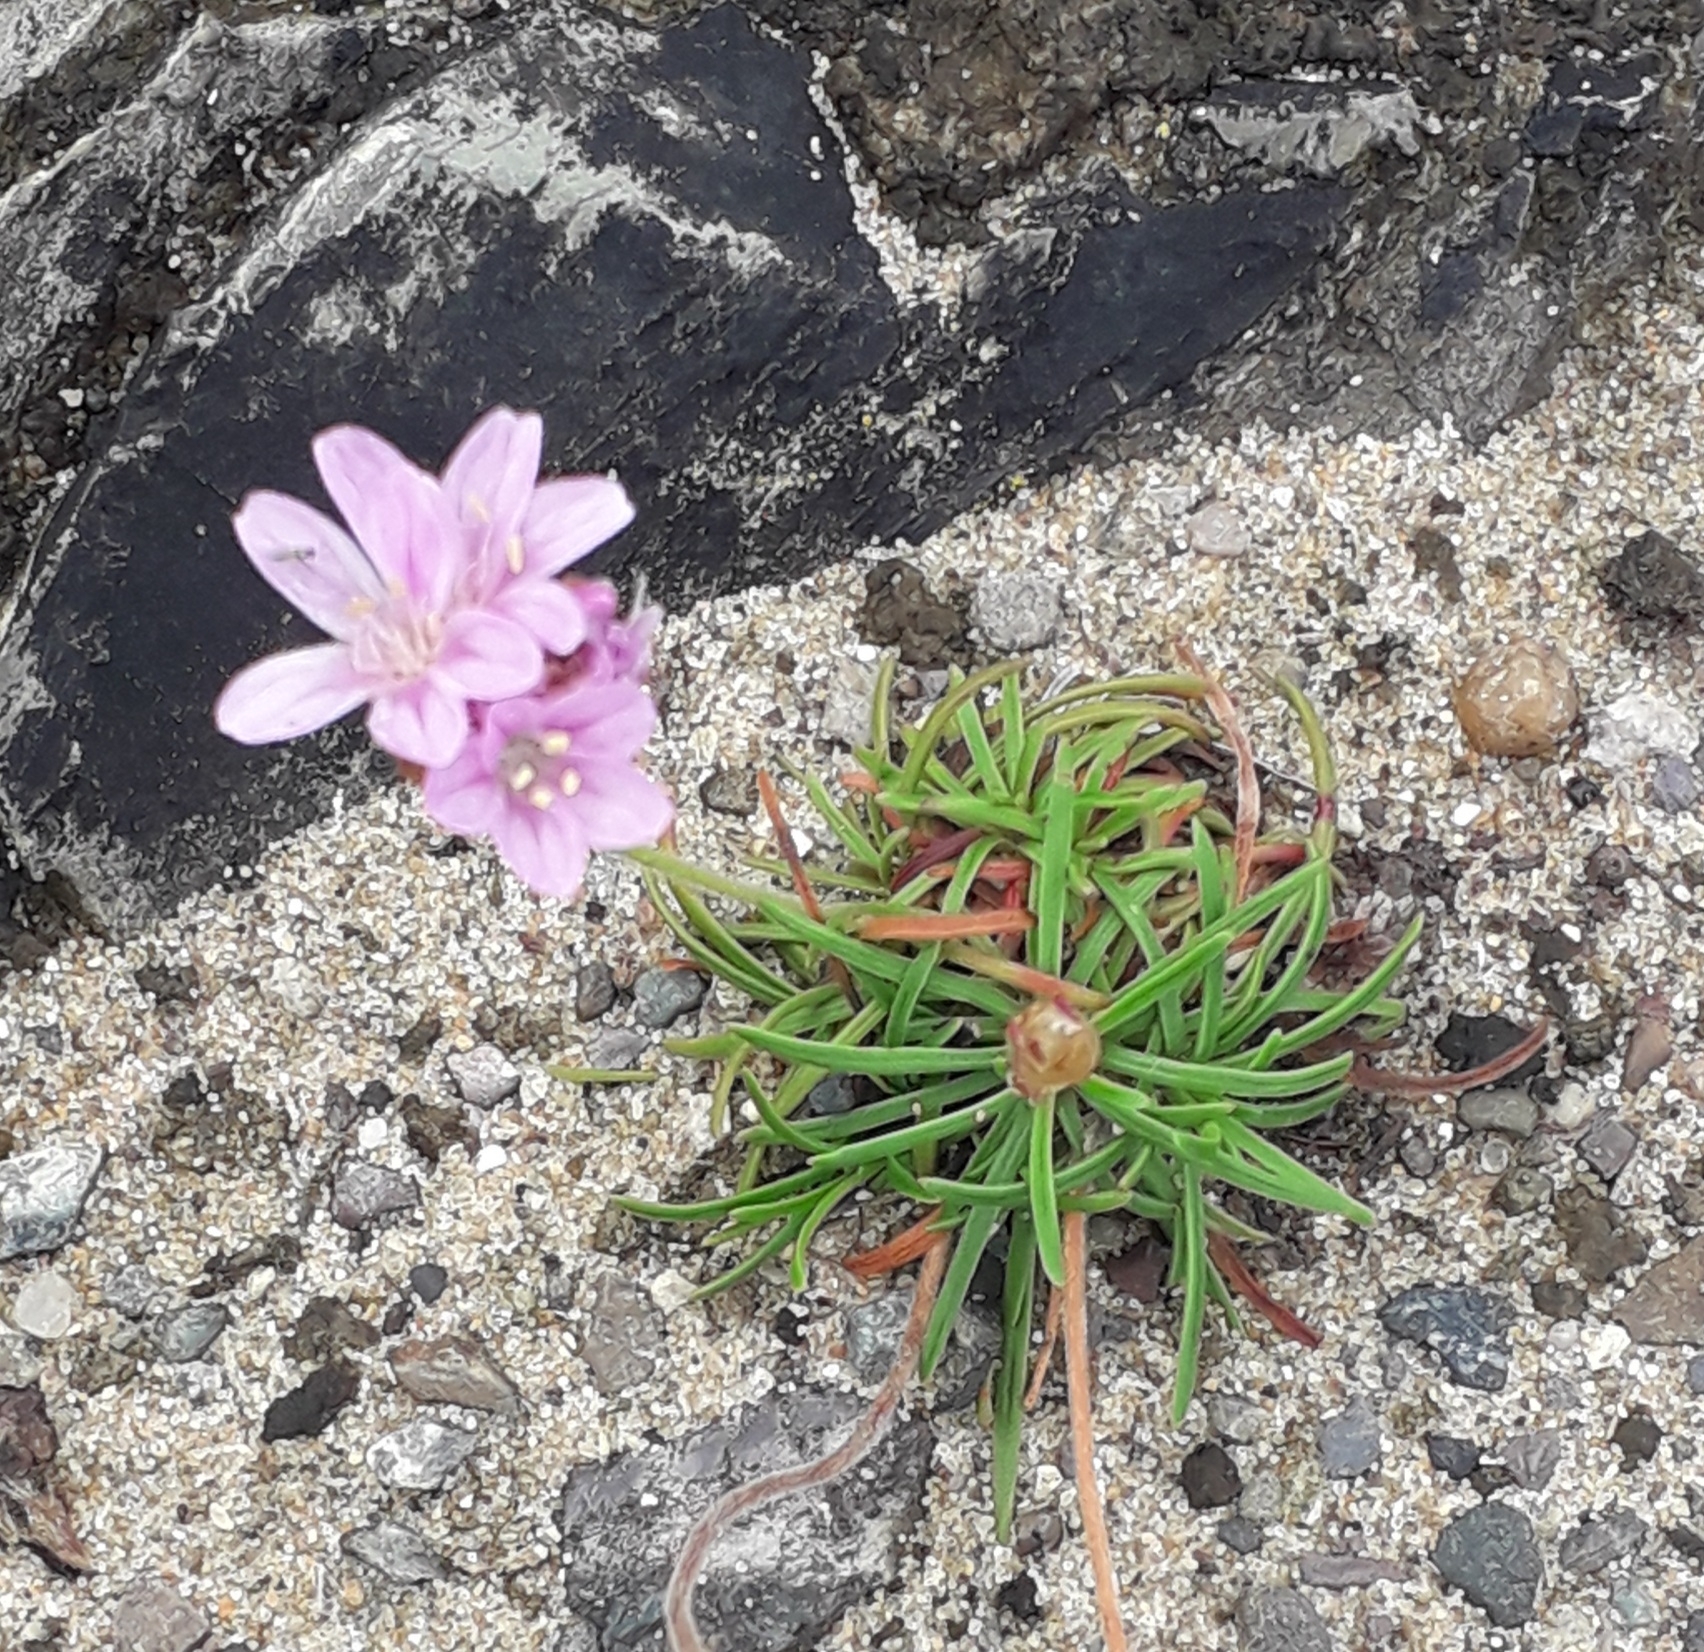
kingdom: Plantae
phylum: Tracheophyta
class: Magnoliopsida
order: Caryophyllales
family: Plumbaginaceae
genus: Armeria
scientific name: Armeria maritima
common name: Thrift
